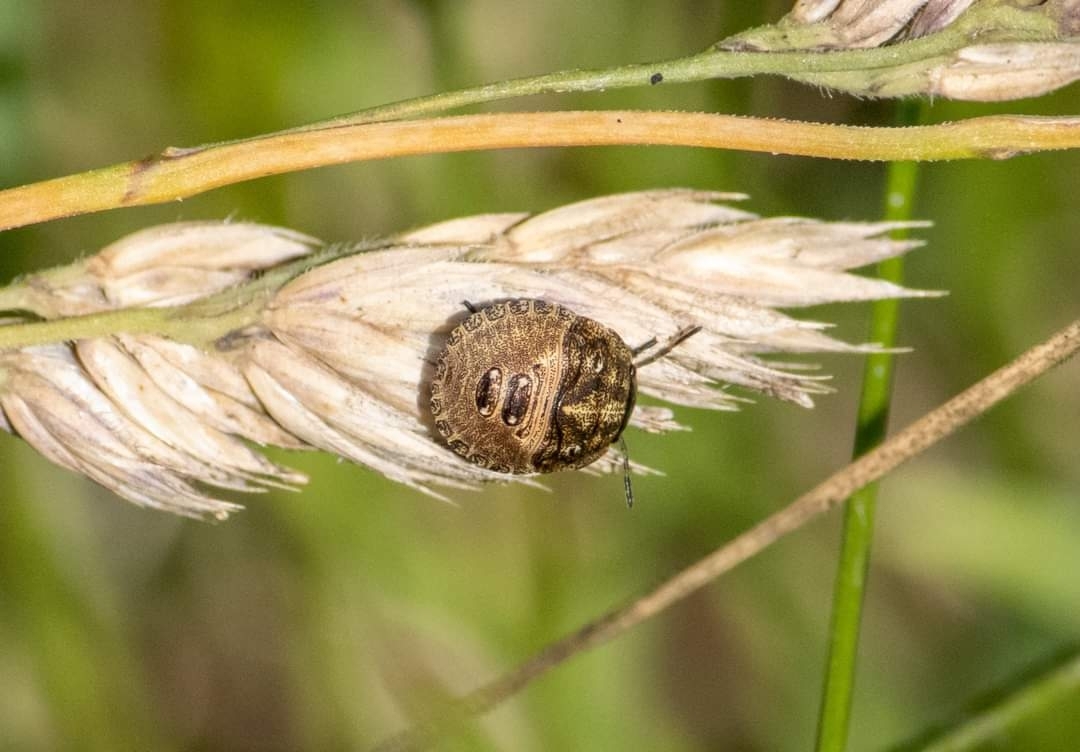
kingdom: Animalia
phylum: Arthropoda
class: Insecta
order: Hemiptera
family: Scutelleridae
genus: Eurygaster
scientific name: Eurygaster testudinaria
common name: Tortoise bug
